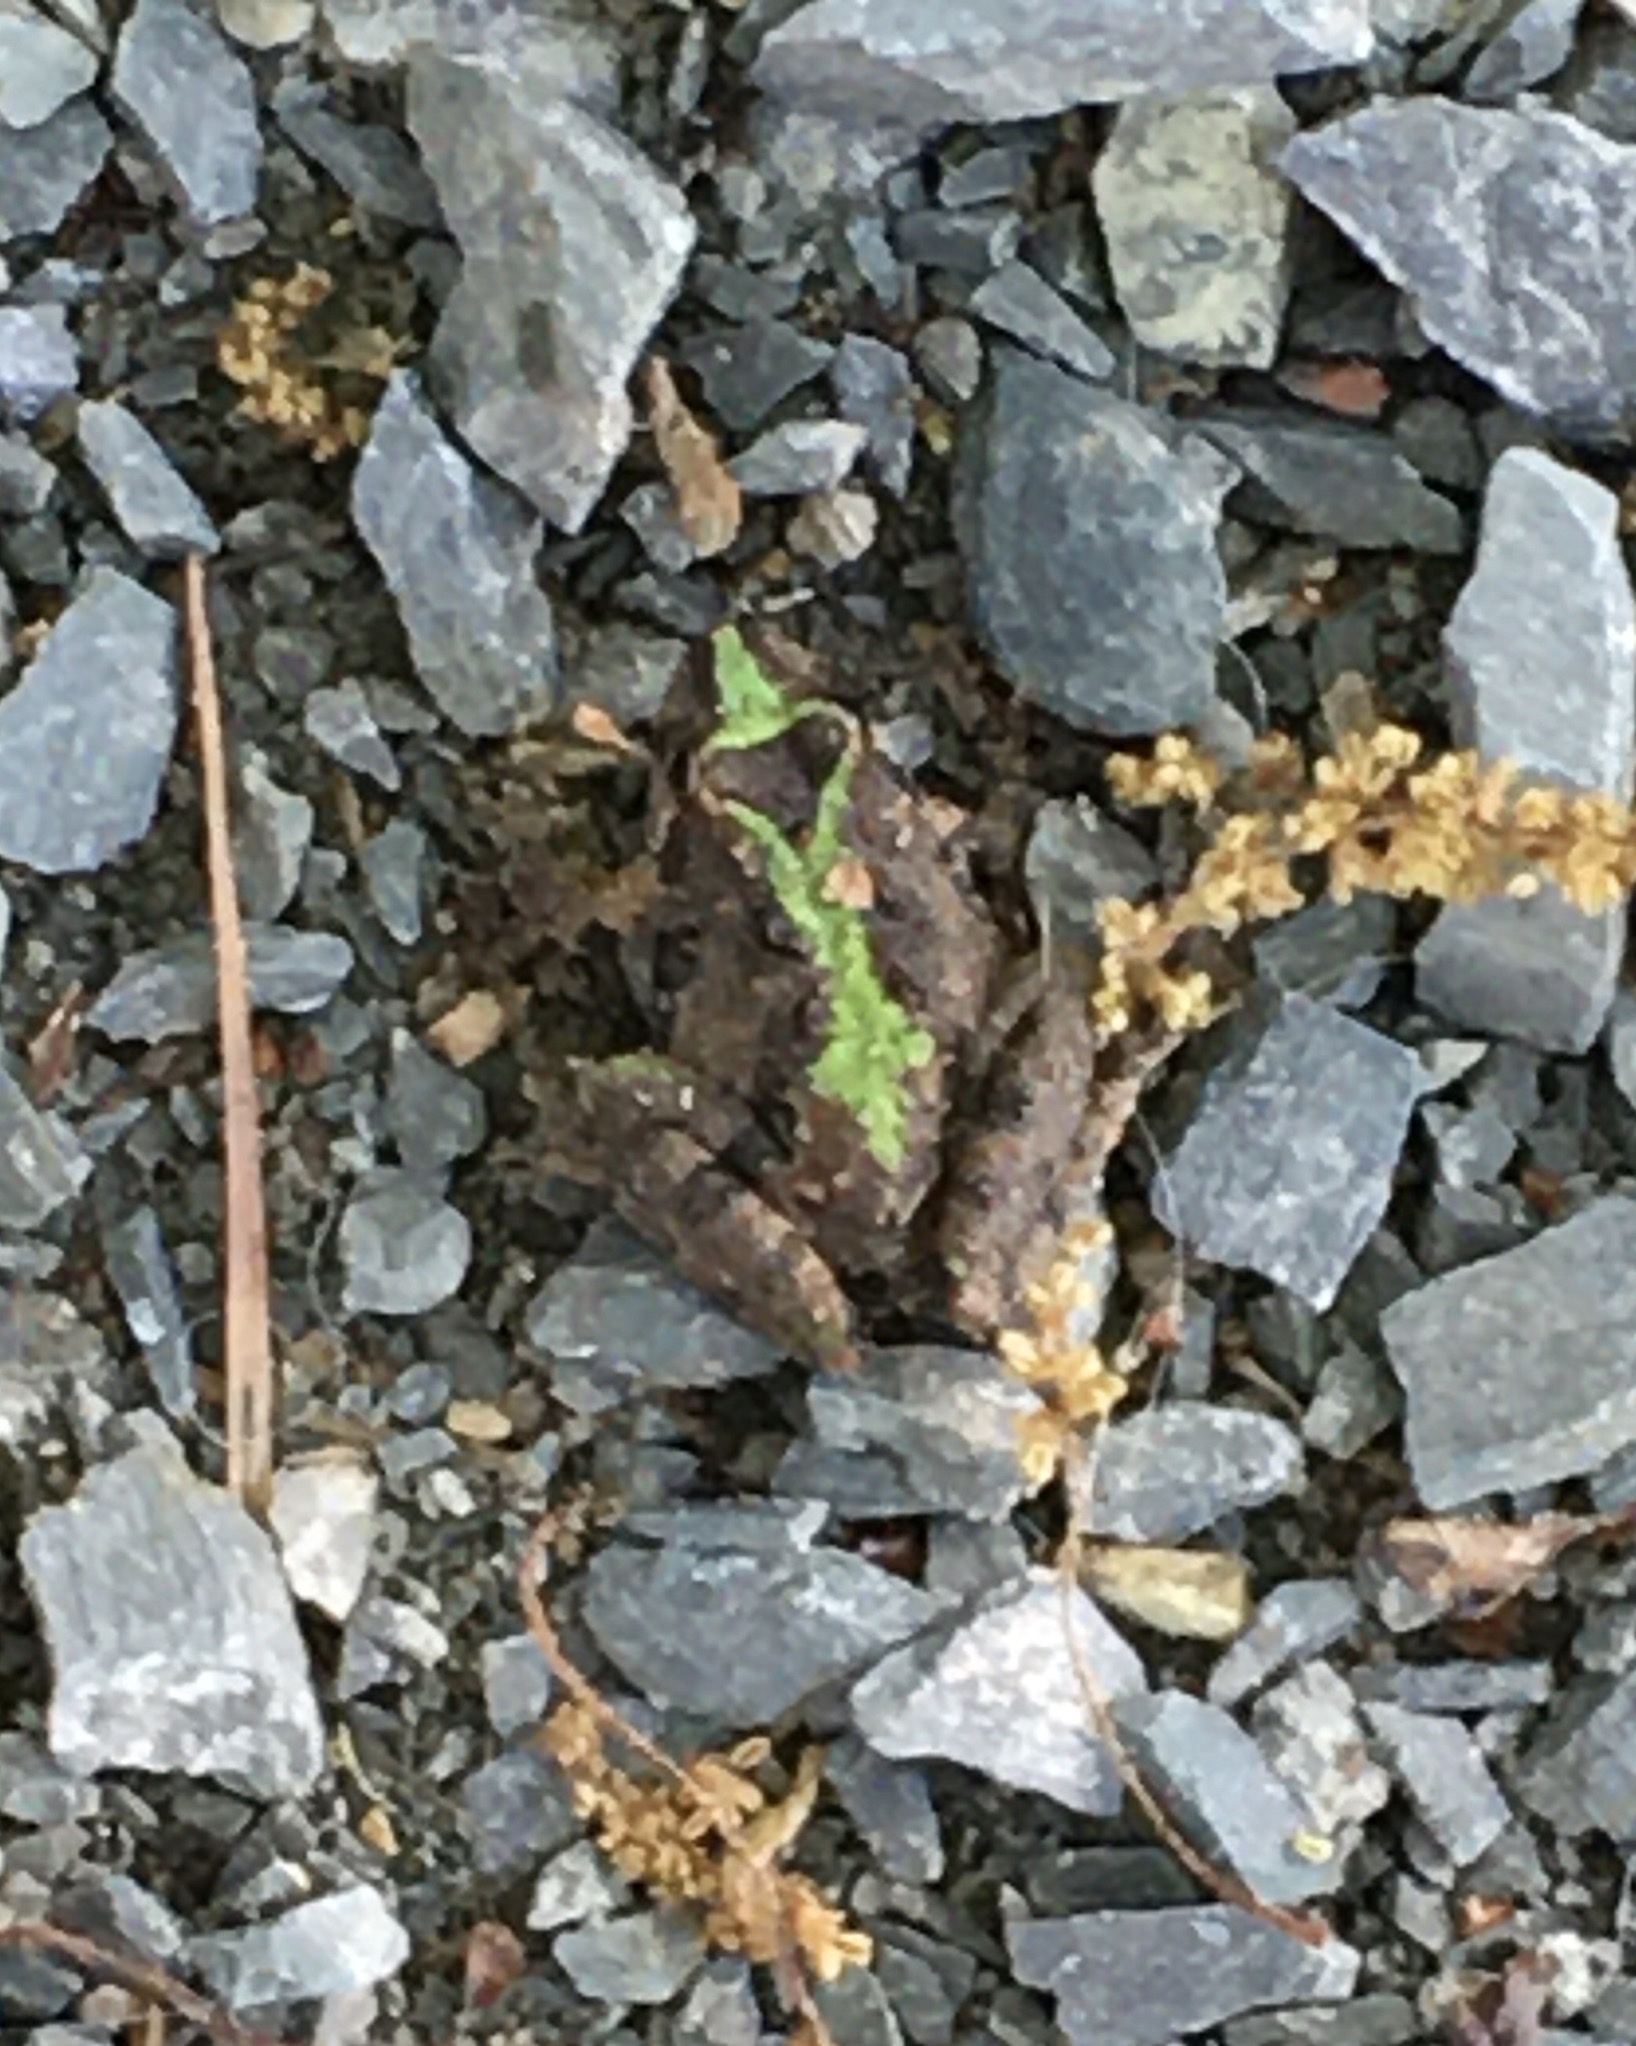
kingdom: Animalia
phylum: Chordata
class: Amphibia
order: Anura
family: Hylidae
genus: Acris
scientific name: Acris crepitans
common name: Northern cricket frog
